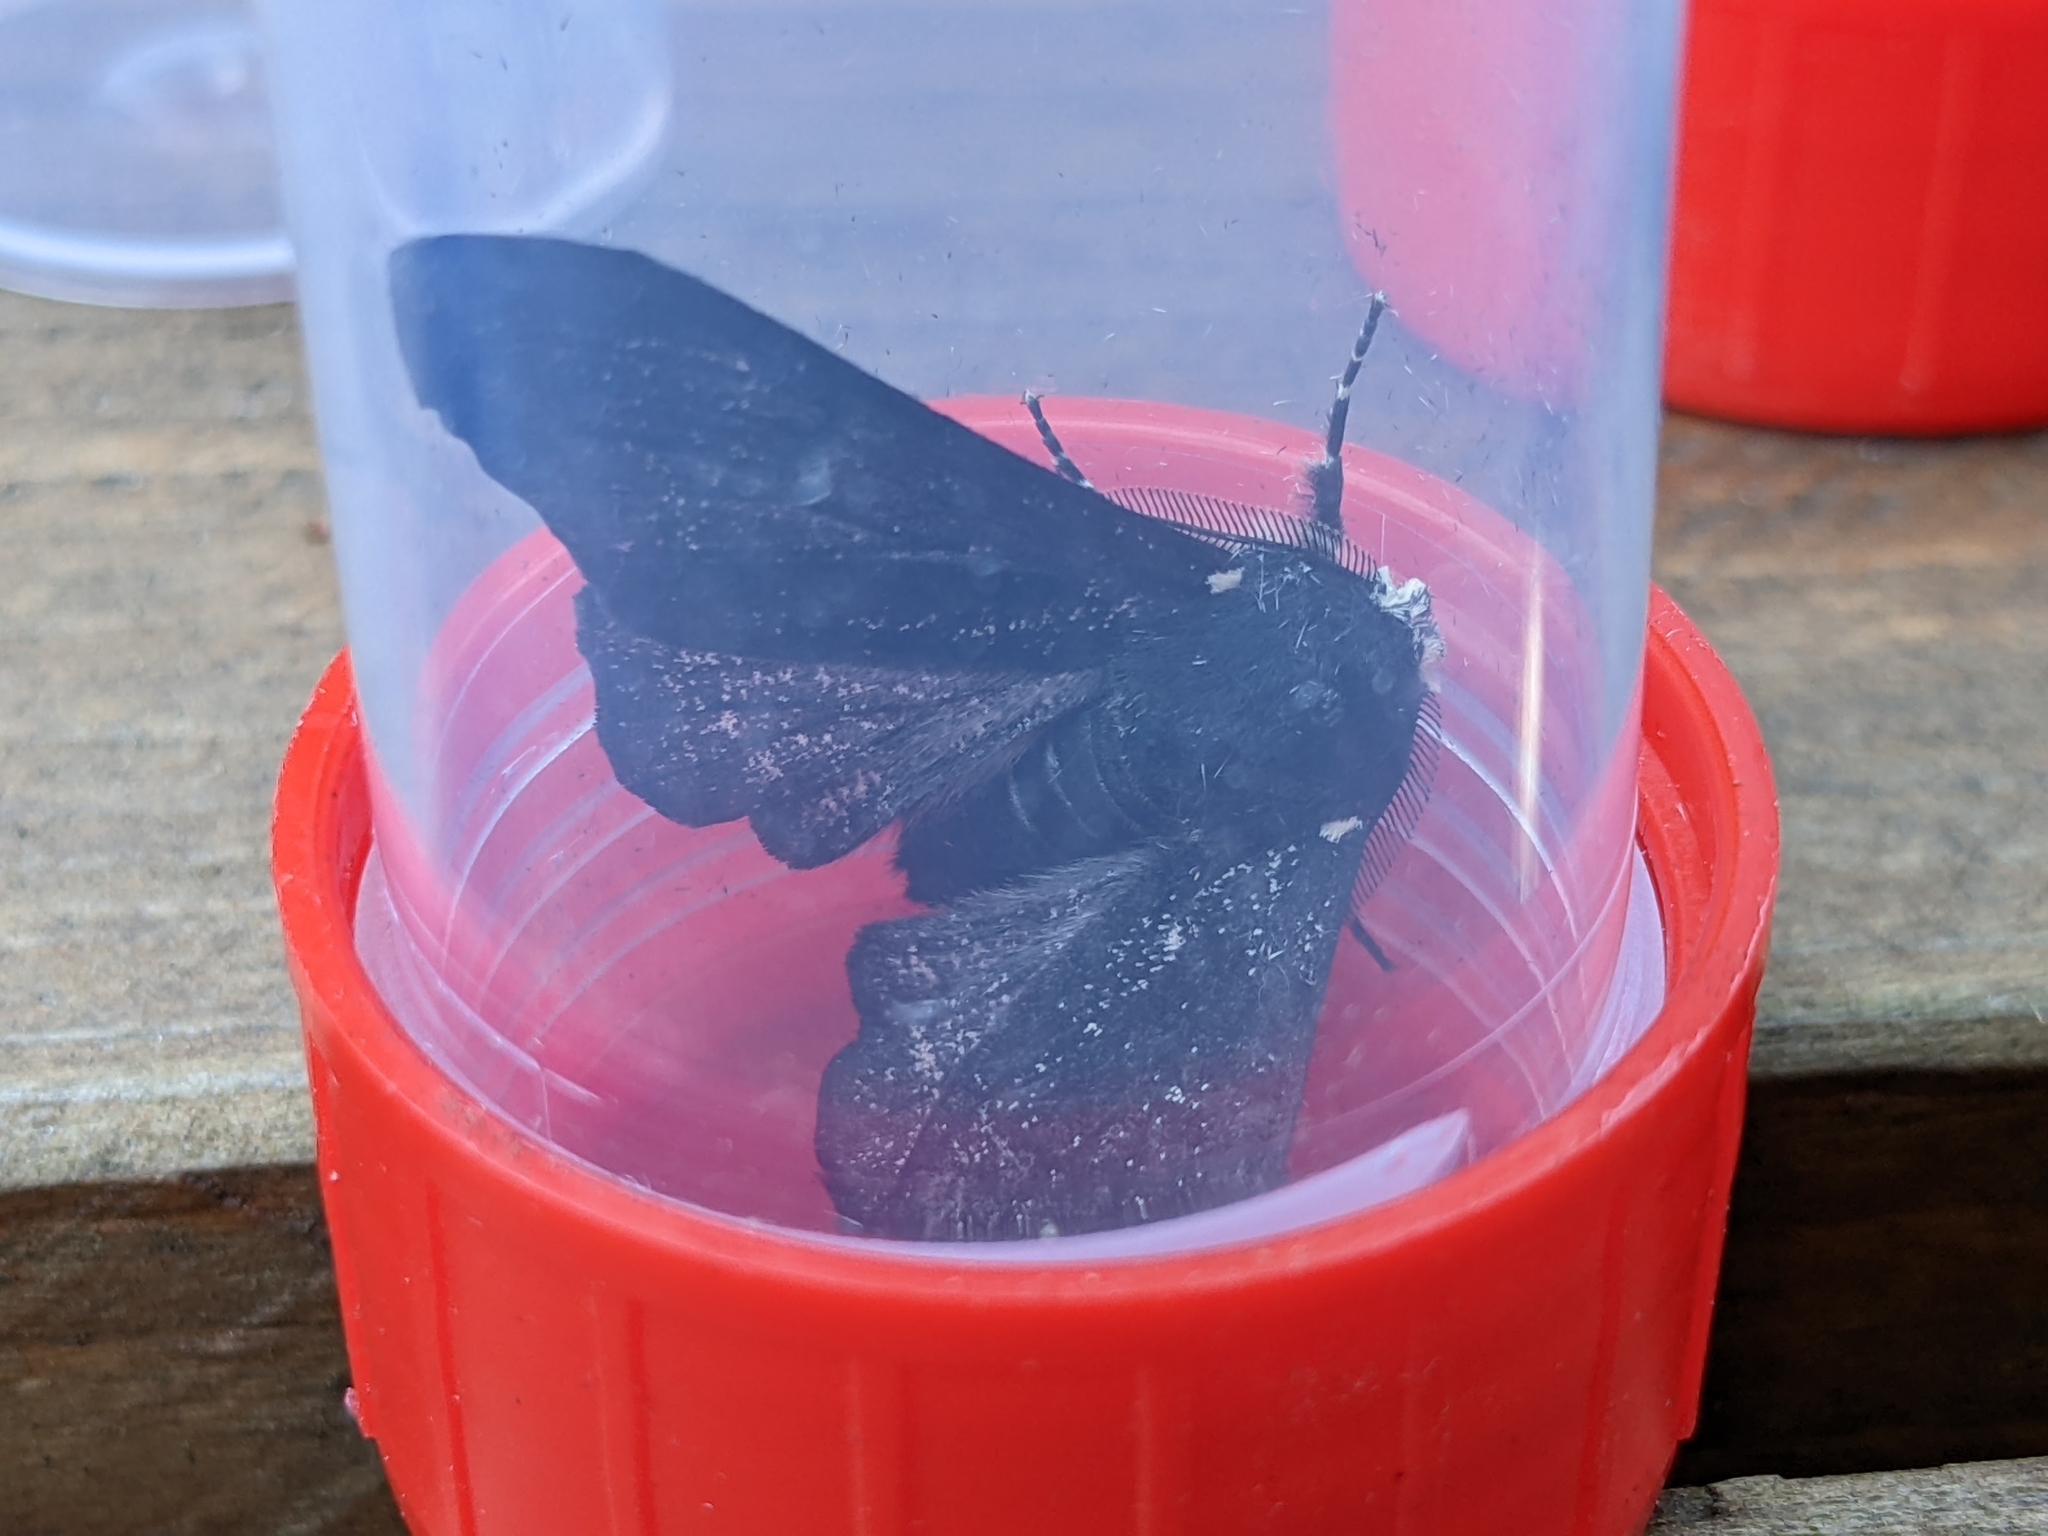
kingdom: Animalia
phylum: Arthropoda
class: Insecta
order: Lepidoptera
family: Geometridae
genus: Biston
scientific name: Biston betularia
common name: Peppered moth
